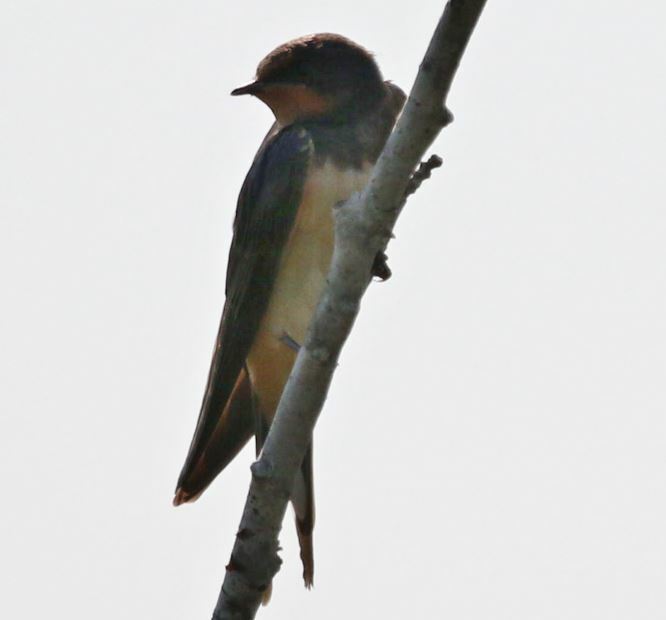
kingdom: Animalia
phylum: Chordata
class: Aves
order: Passeriformes
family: Hirundinidae
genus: Hirundo
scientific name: Hirundo rustica
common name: Barn swallow
